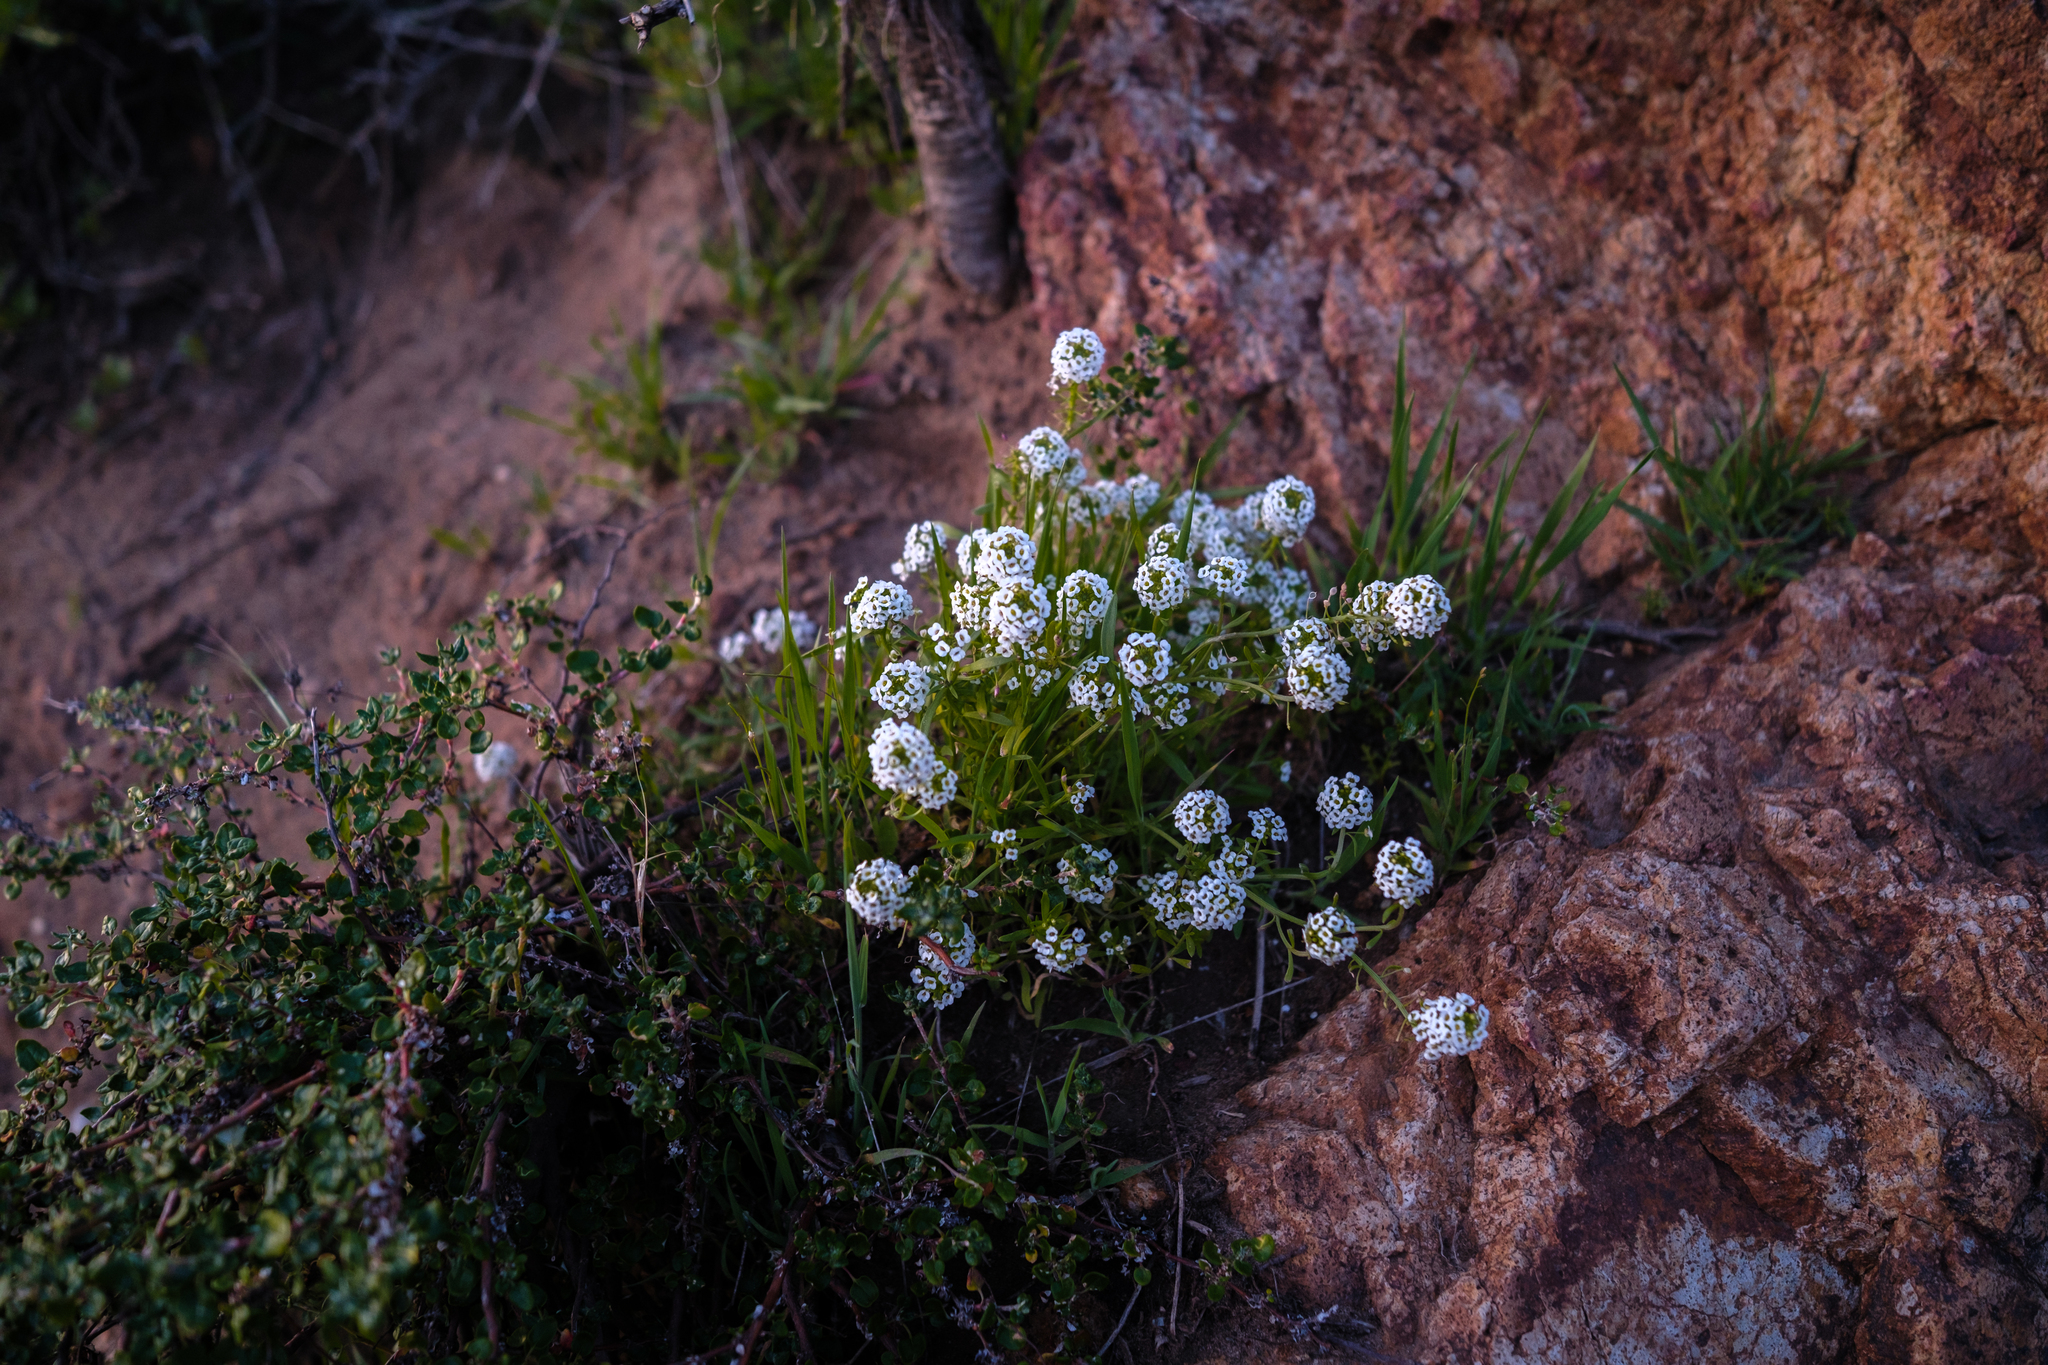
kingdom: Plantae
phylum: Tracheophyta
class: Magnoliopsida
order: Brassicales
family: Brassicaceae
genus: Lobularia
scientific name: Lobularia maritima
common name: Sweet alison
